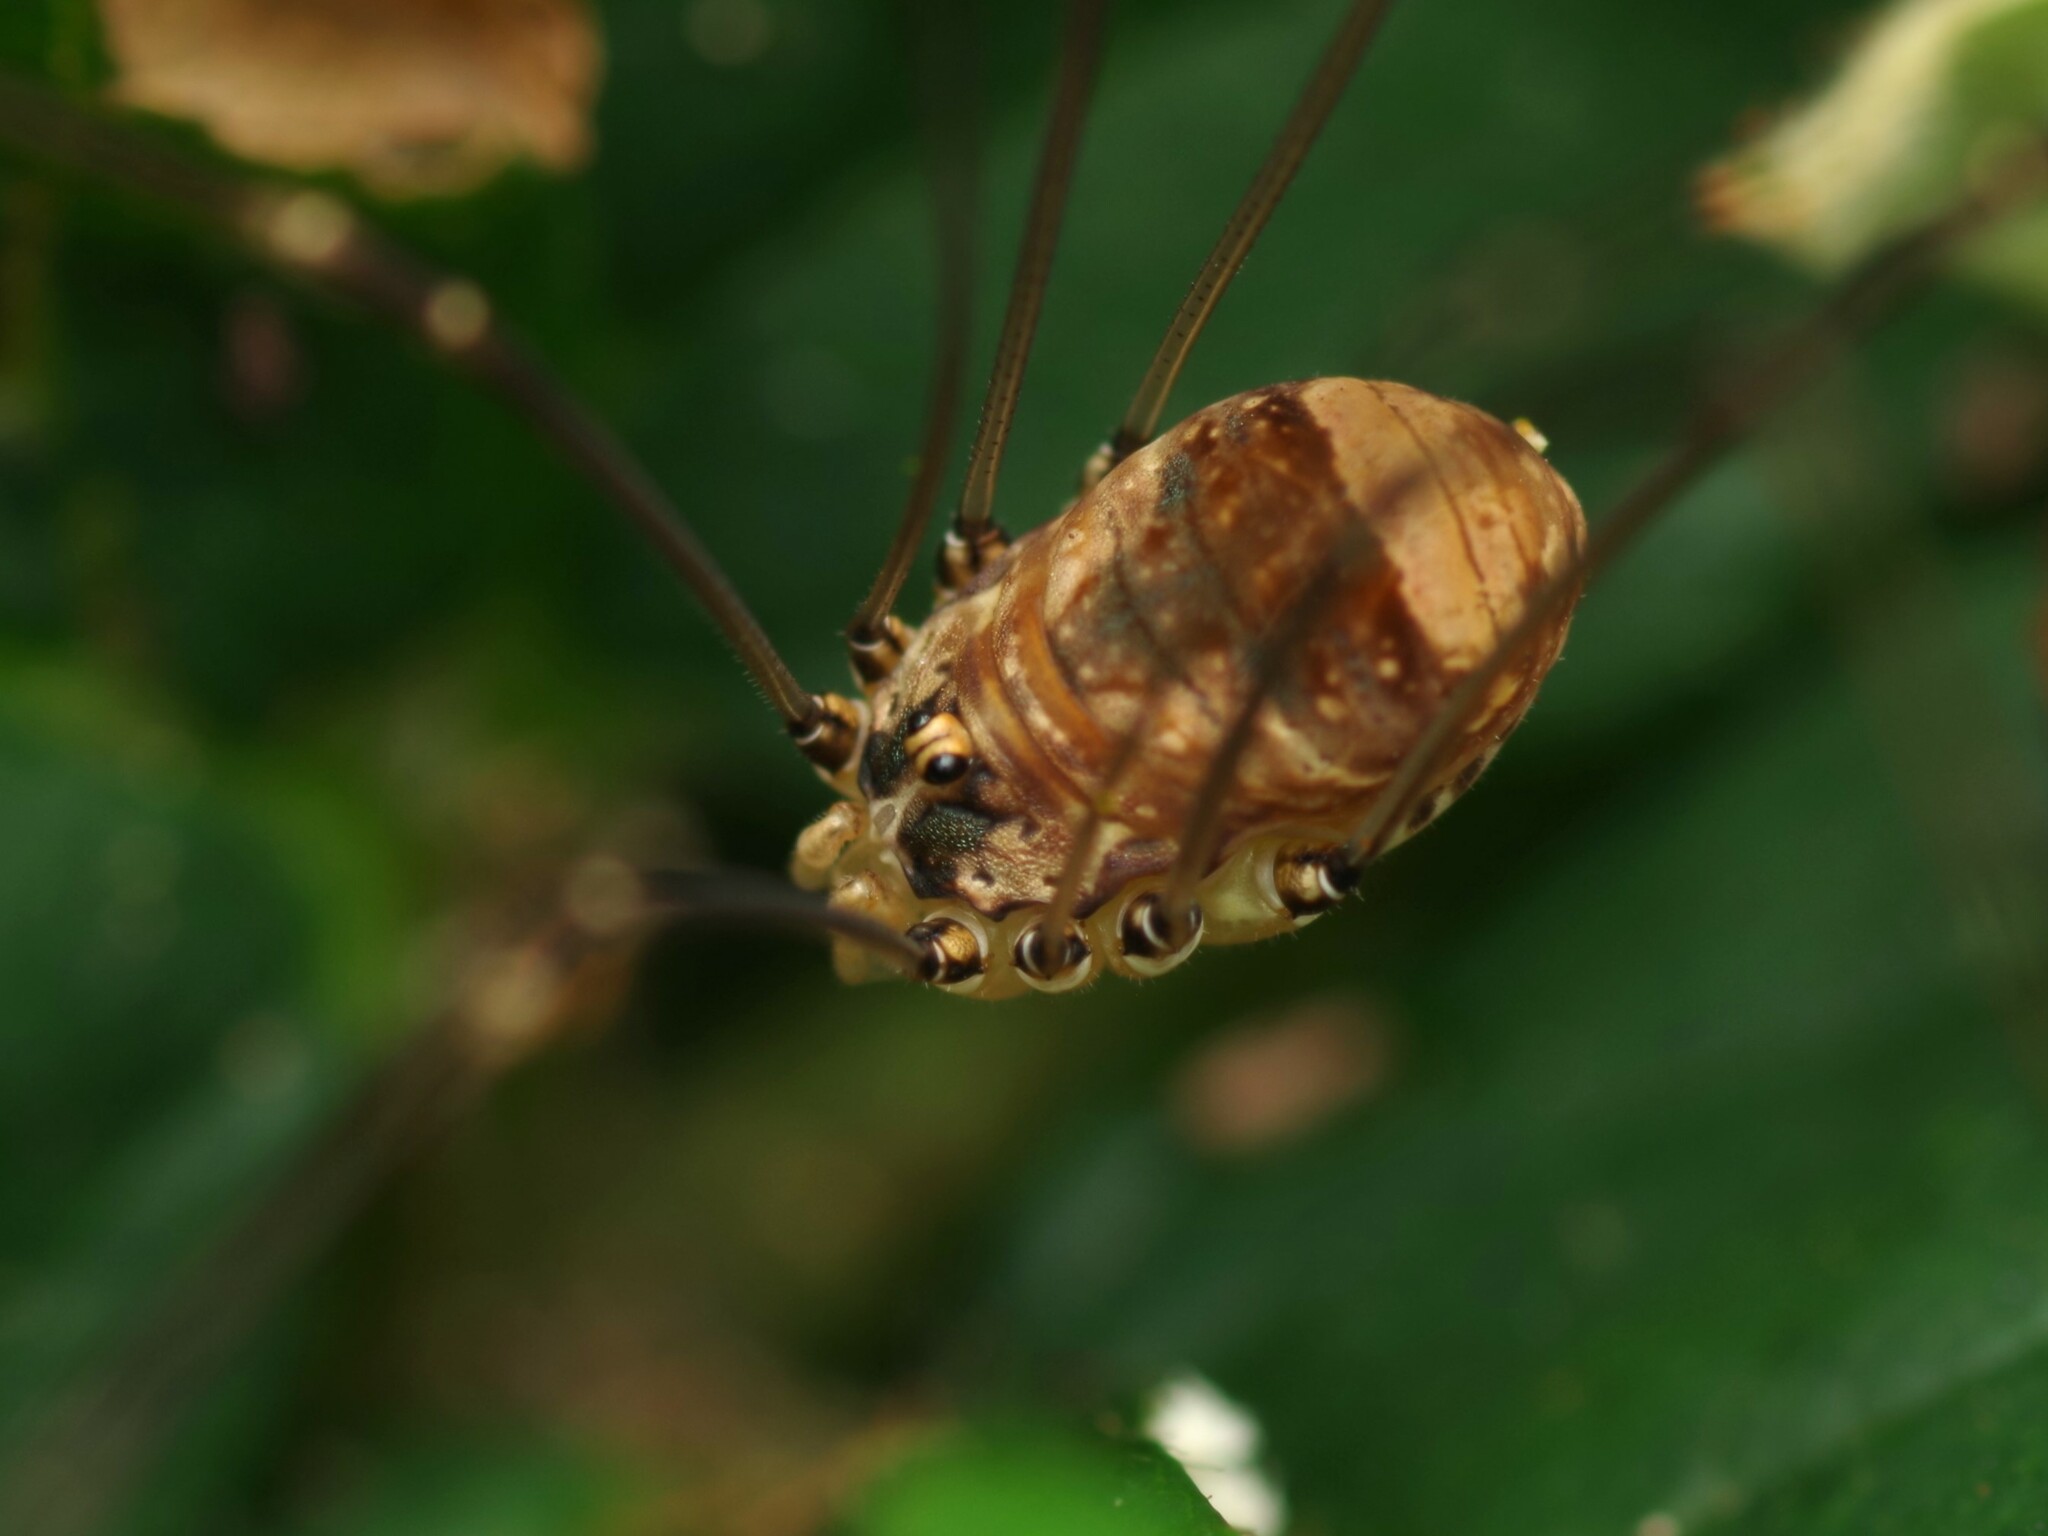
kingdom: Animalia
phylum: Arthropoda
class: Arachnida
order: Opiliones
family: Sclerosomatidae
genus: Leiobunum
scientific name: Leiobunum blackwalli
